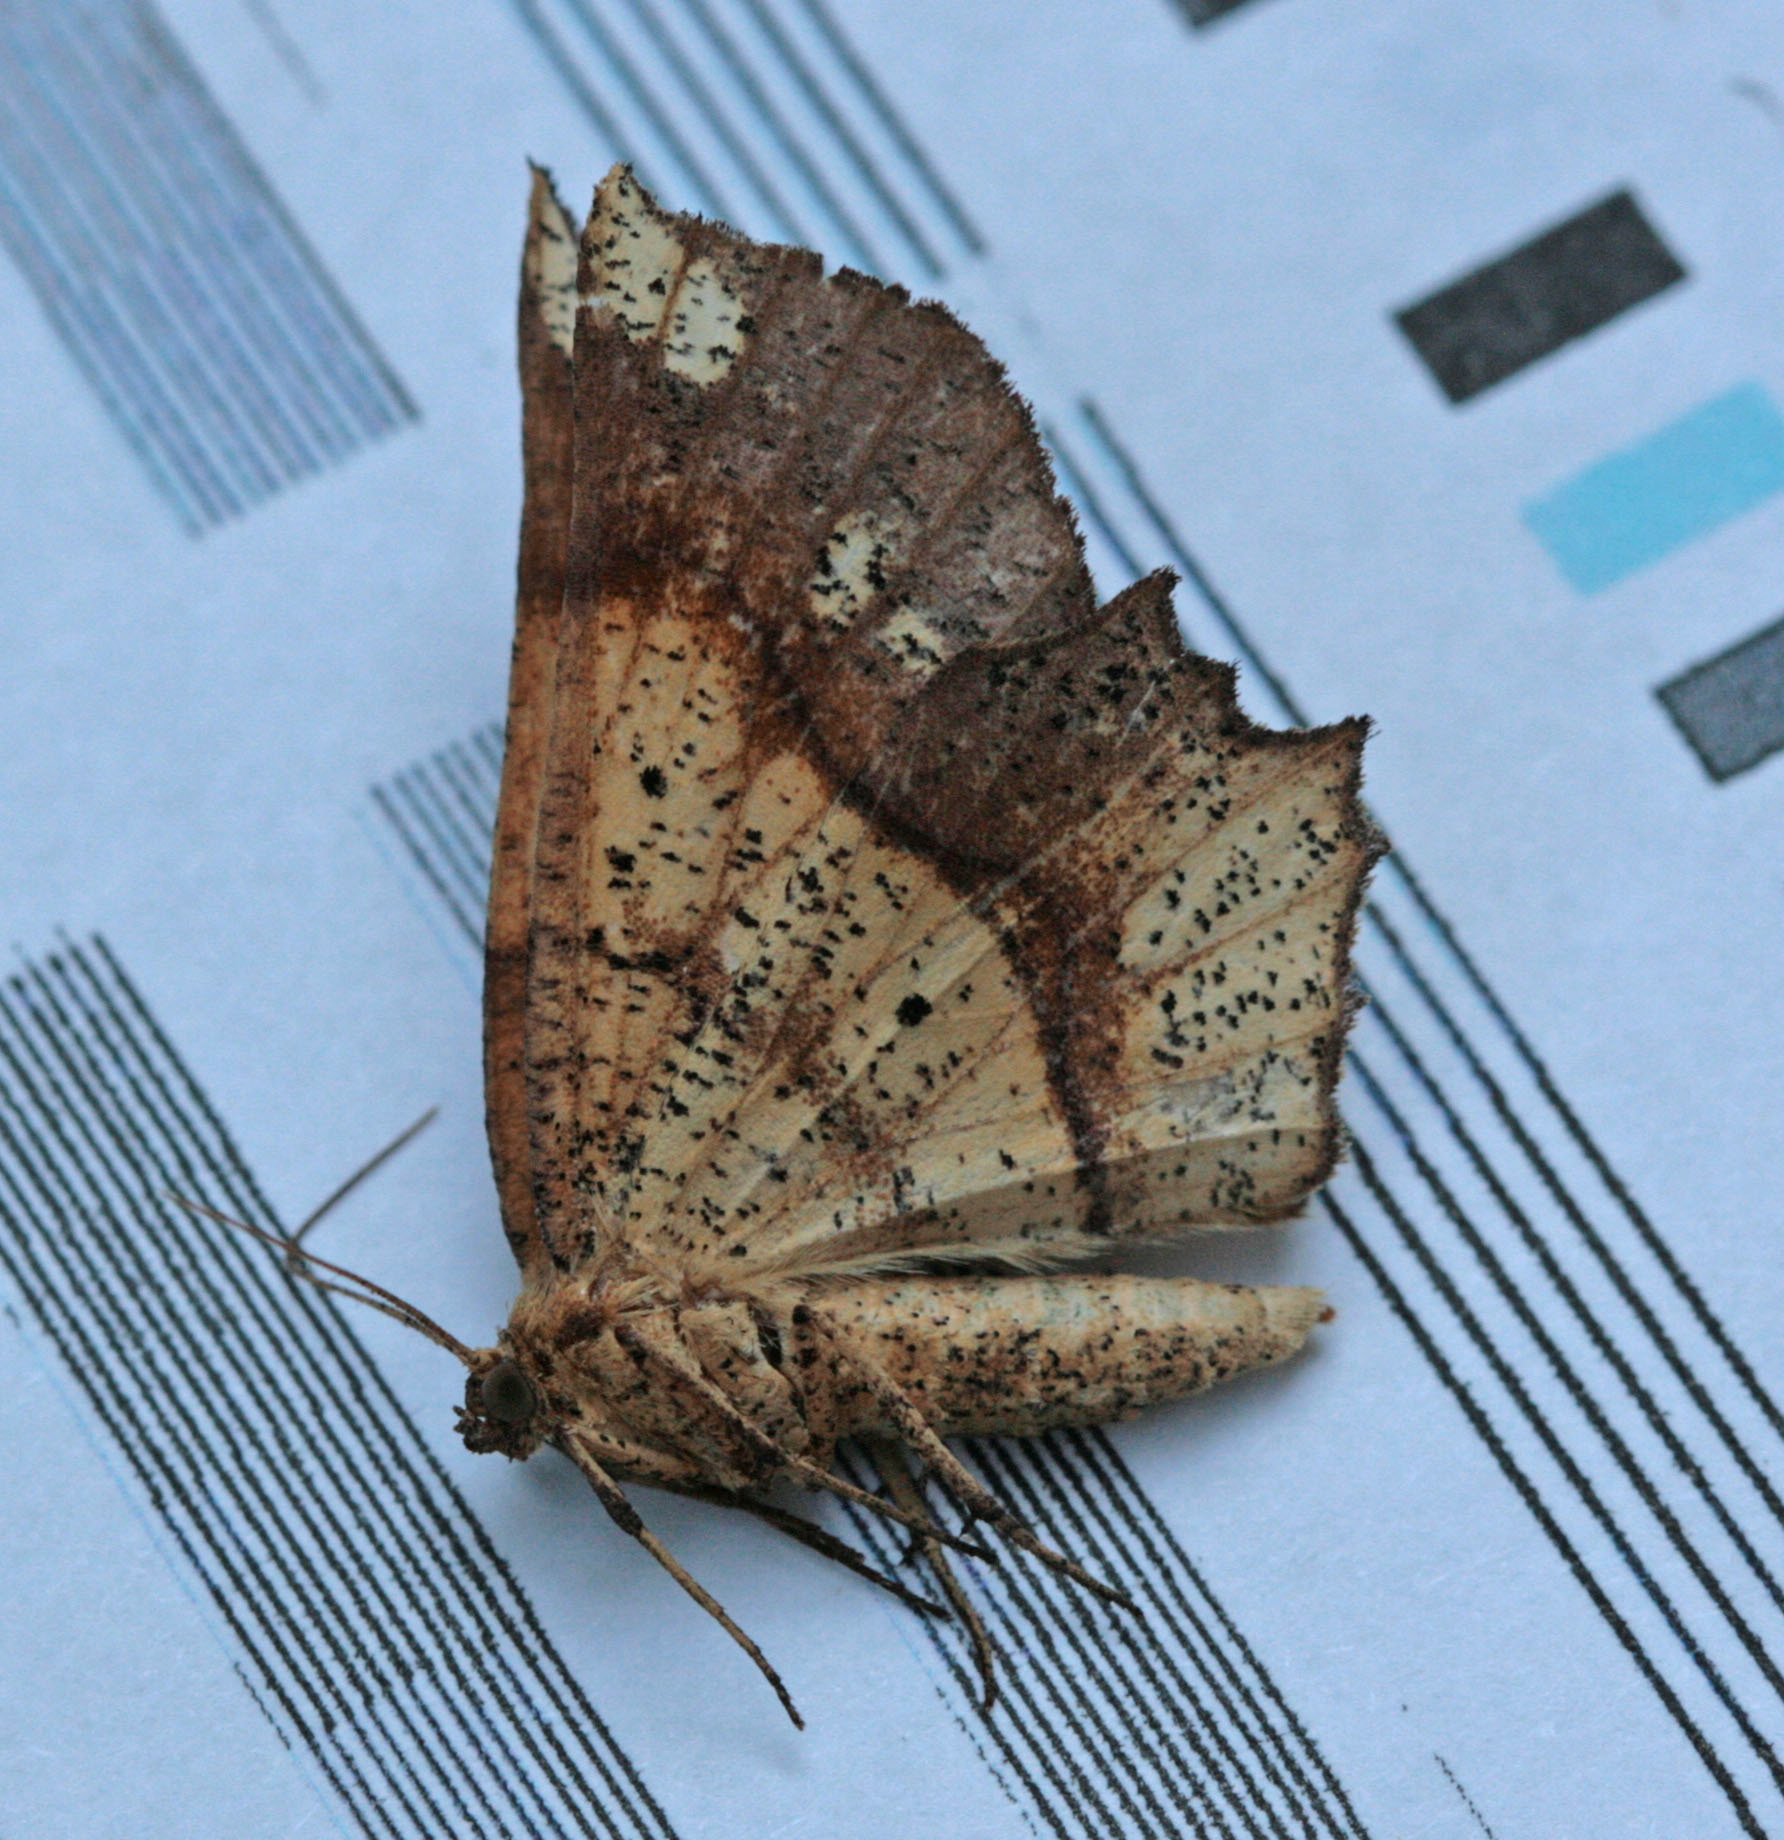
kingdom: Animalia
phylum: Arthropoda
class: Insecta
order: Lepidoptera
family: Geometridae
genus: Euchlaena
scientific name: Euchlaena amoenaria
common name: Deep yellow euchlaena
